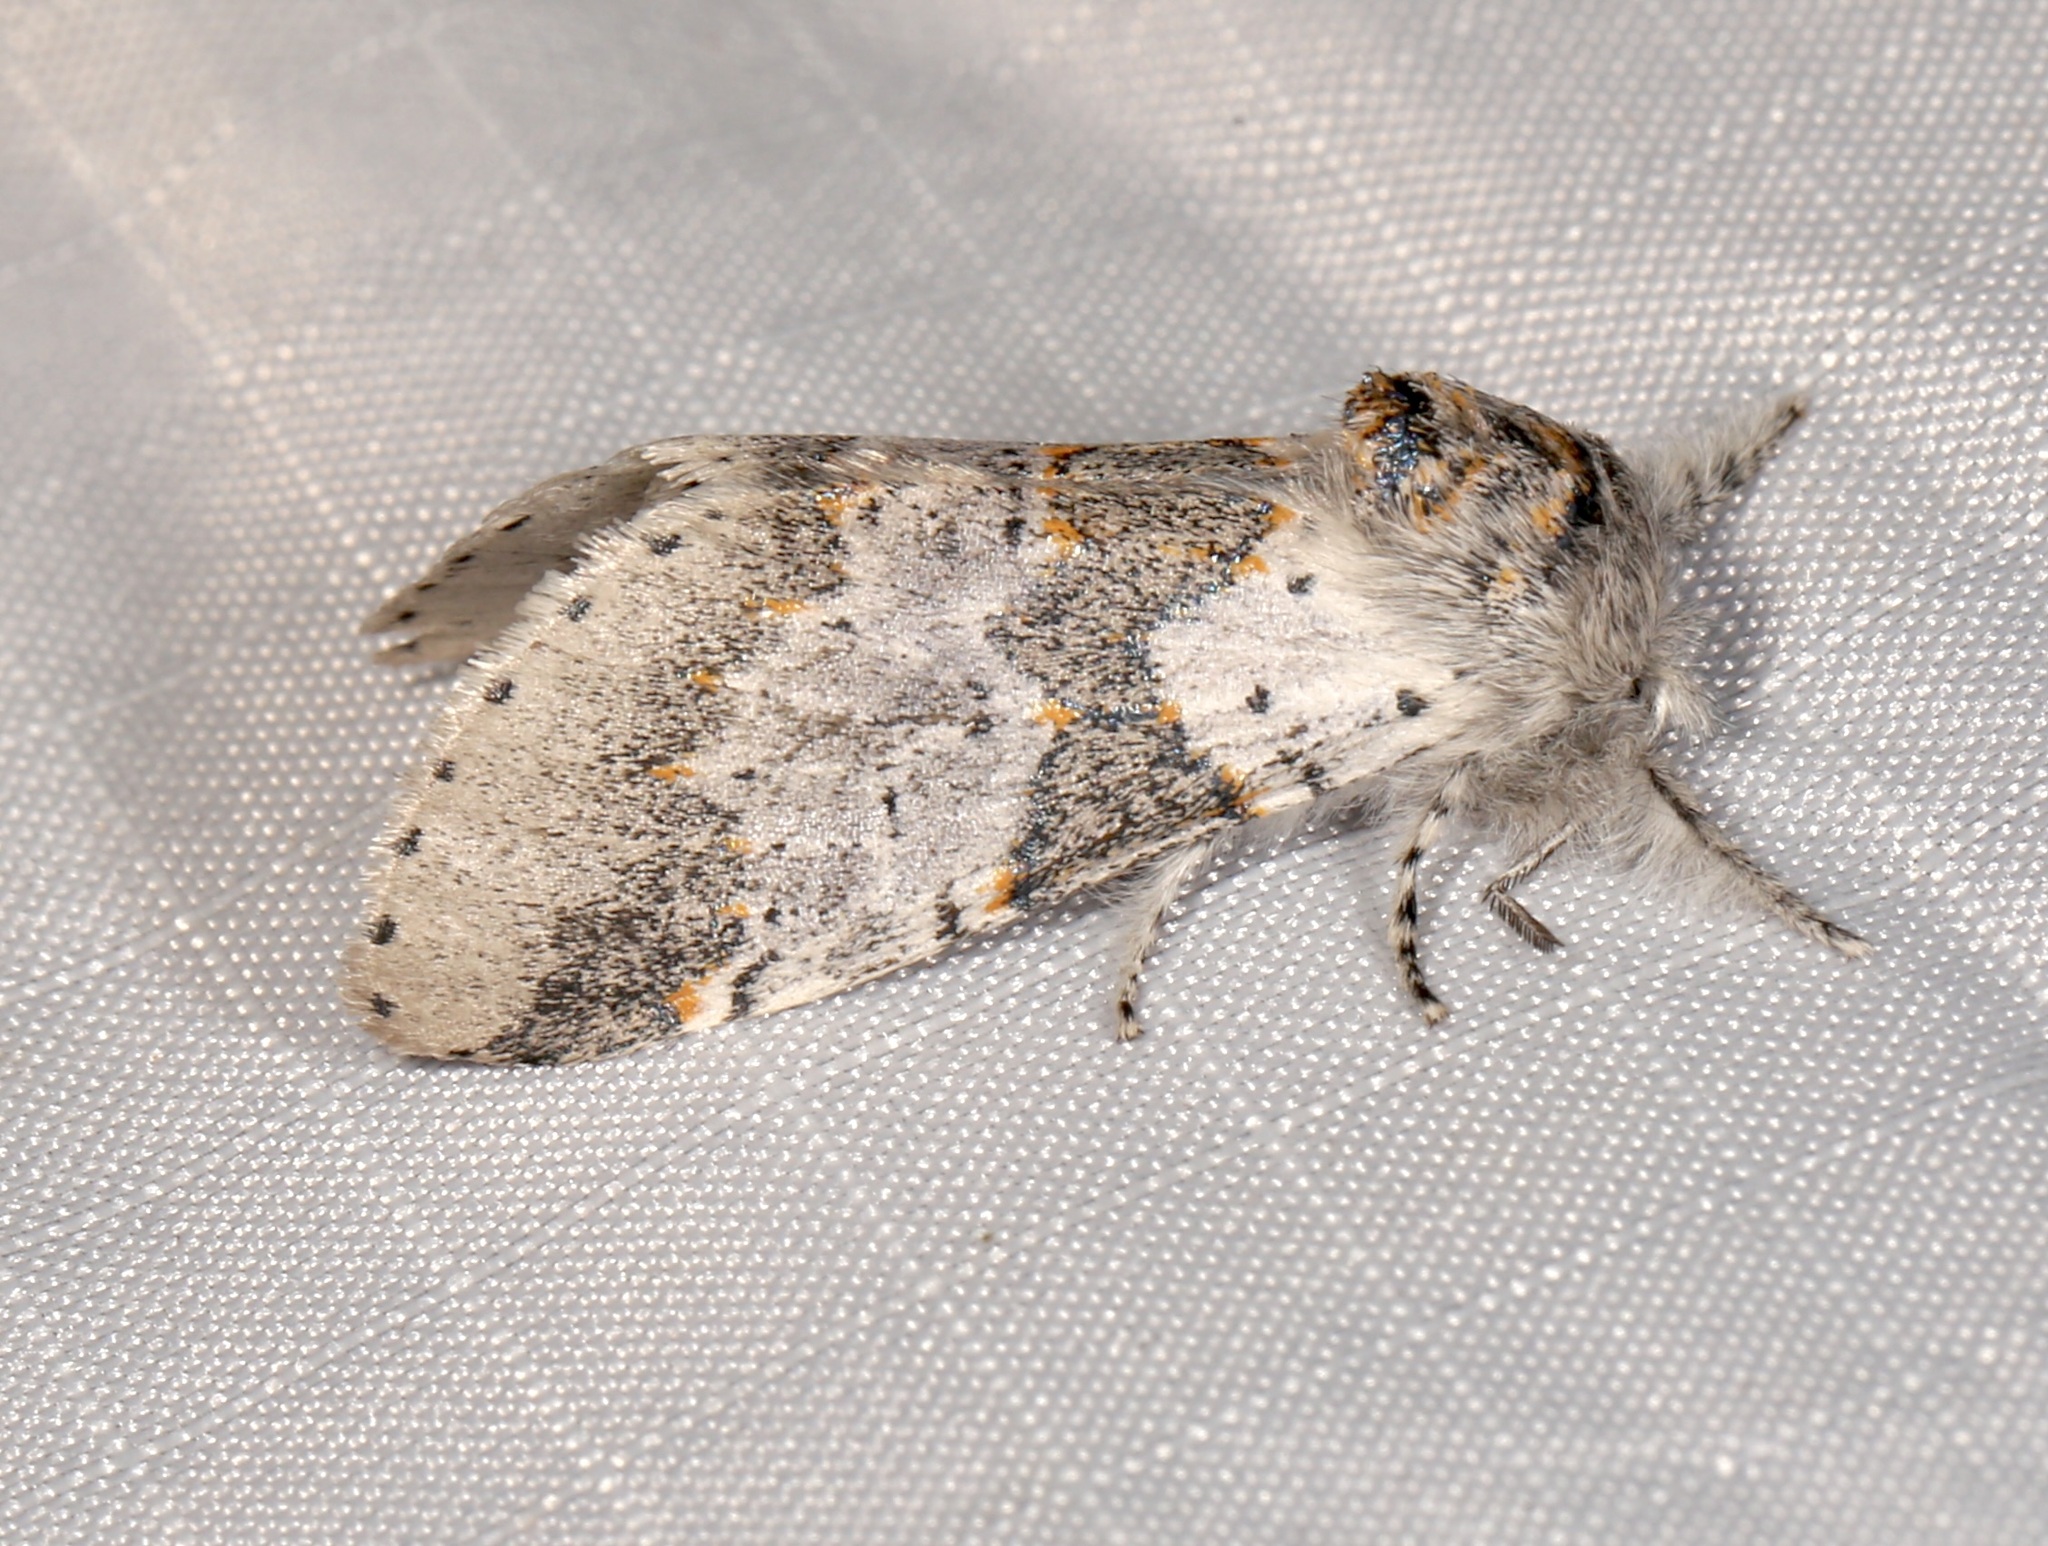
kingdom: Animalia
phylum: Arthropoda
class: Insecta
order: Lepidoptera
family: Notodontidae
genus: Furcula
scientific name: Furcula cinerea
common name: Gray furcula
